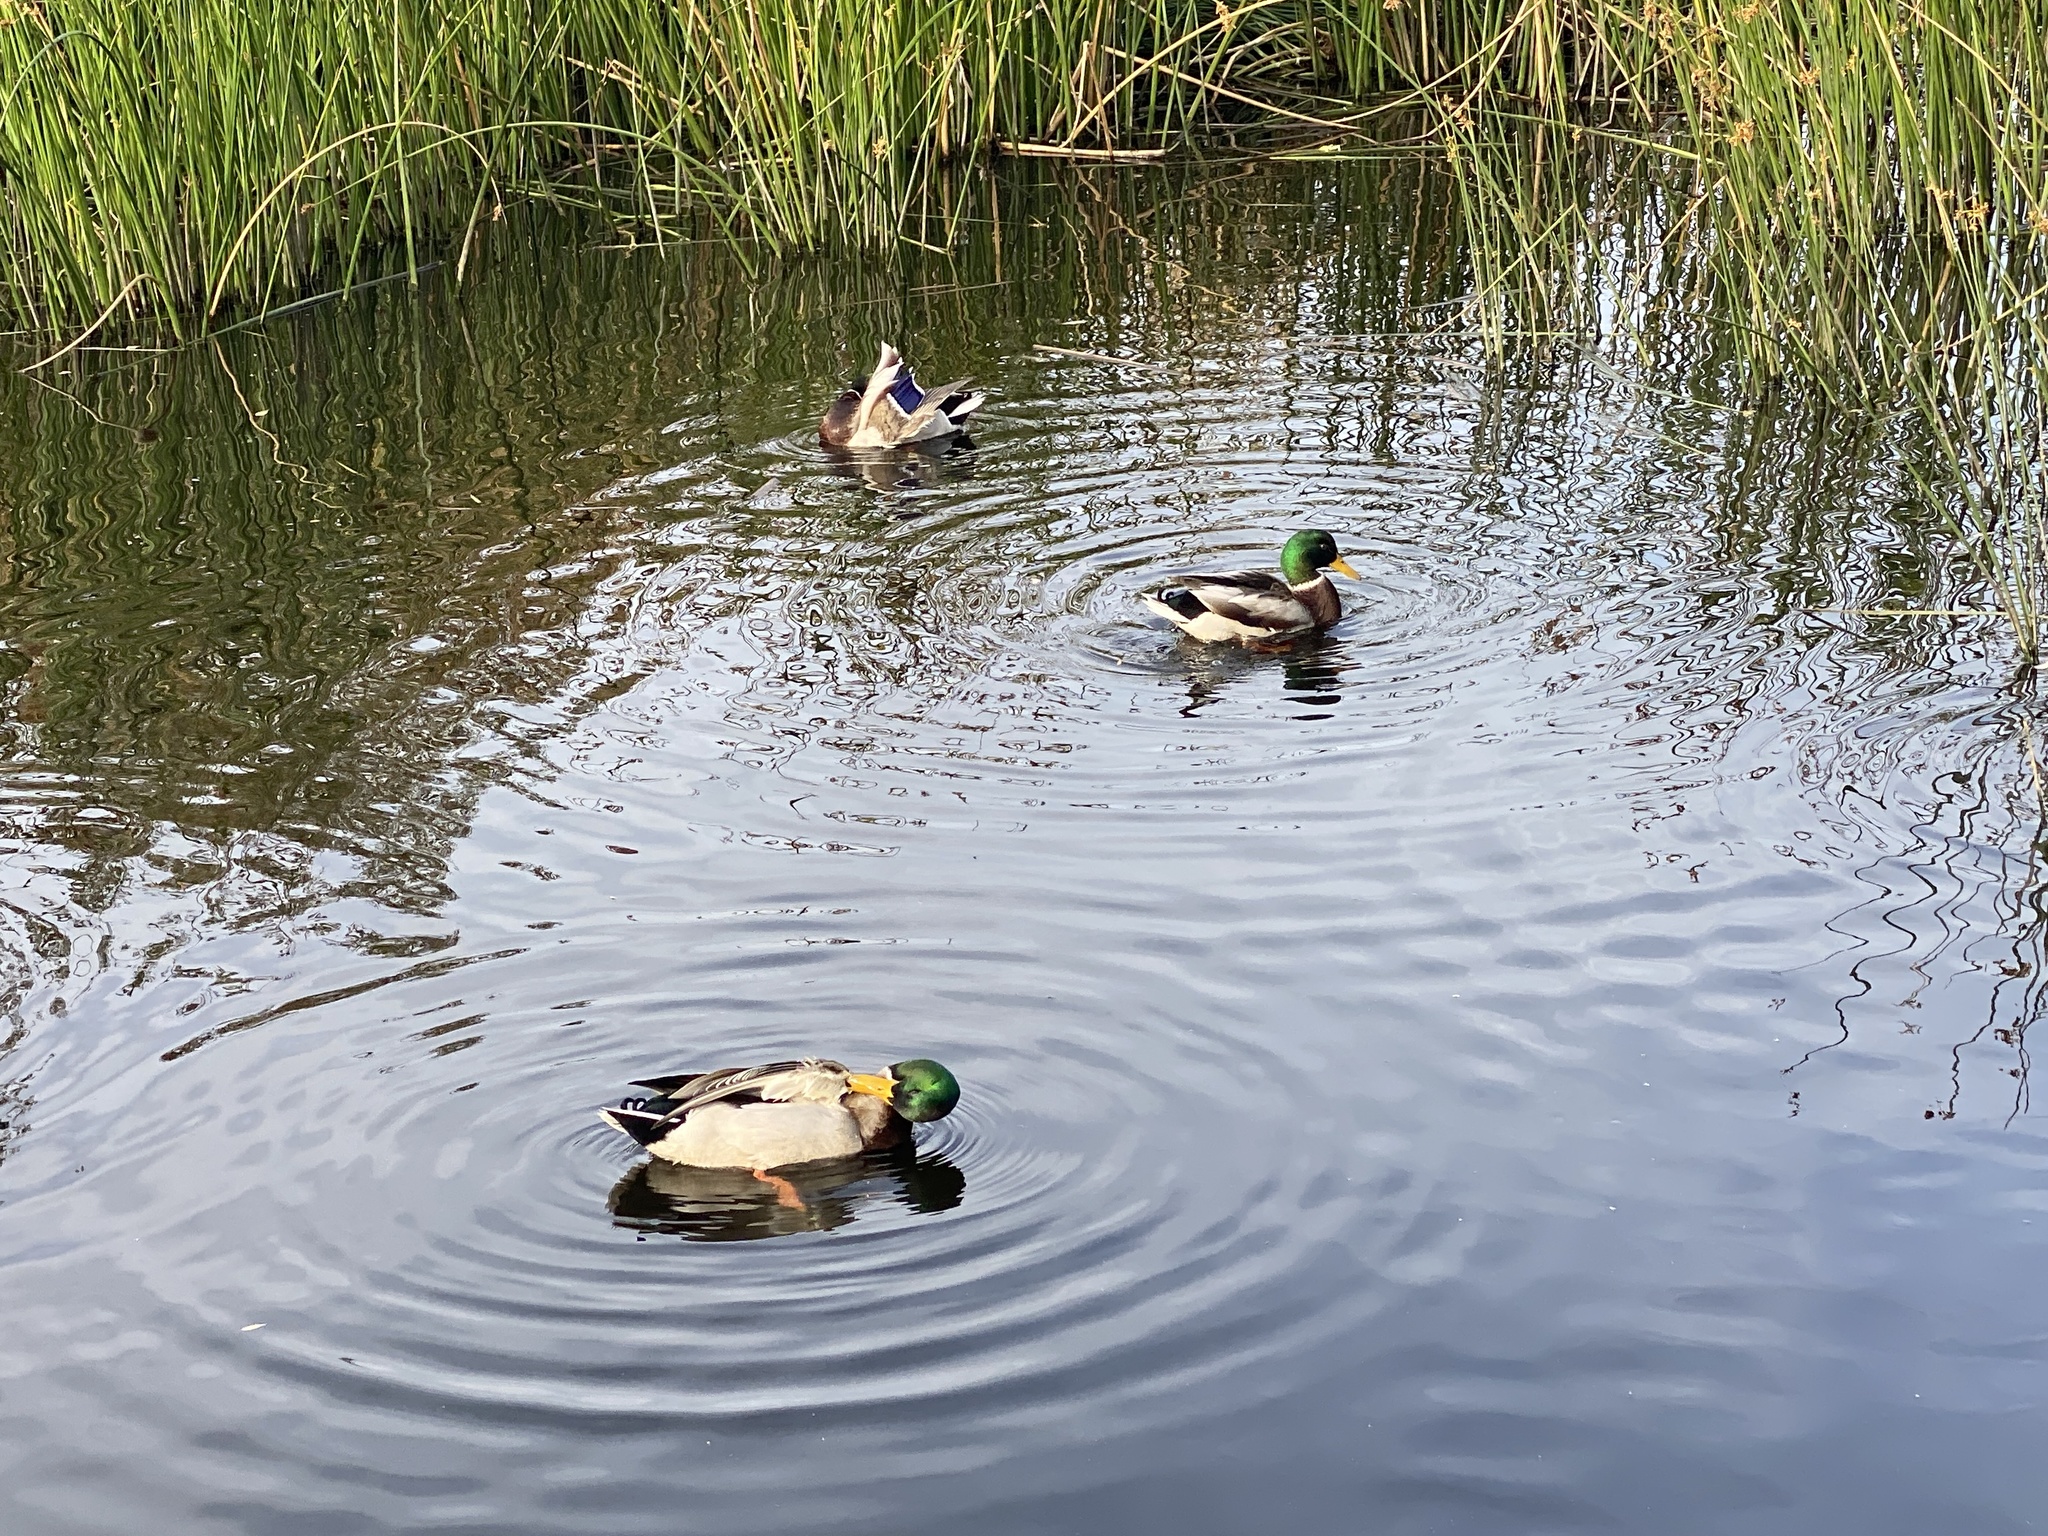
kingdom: Animalia
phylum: Chordata
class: Aves
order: Anseriformes
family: Anatidae
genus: Anas
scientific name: Anas platyrhynchos
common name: Mallard
